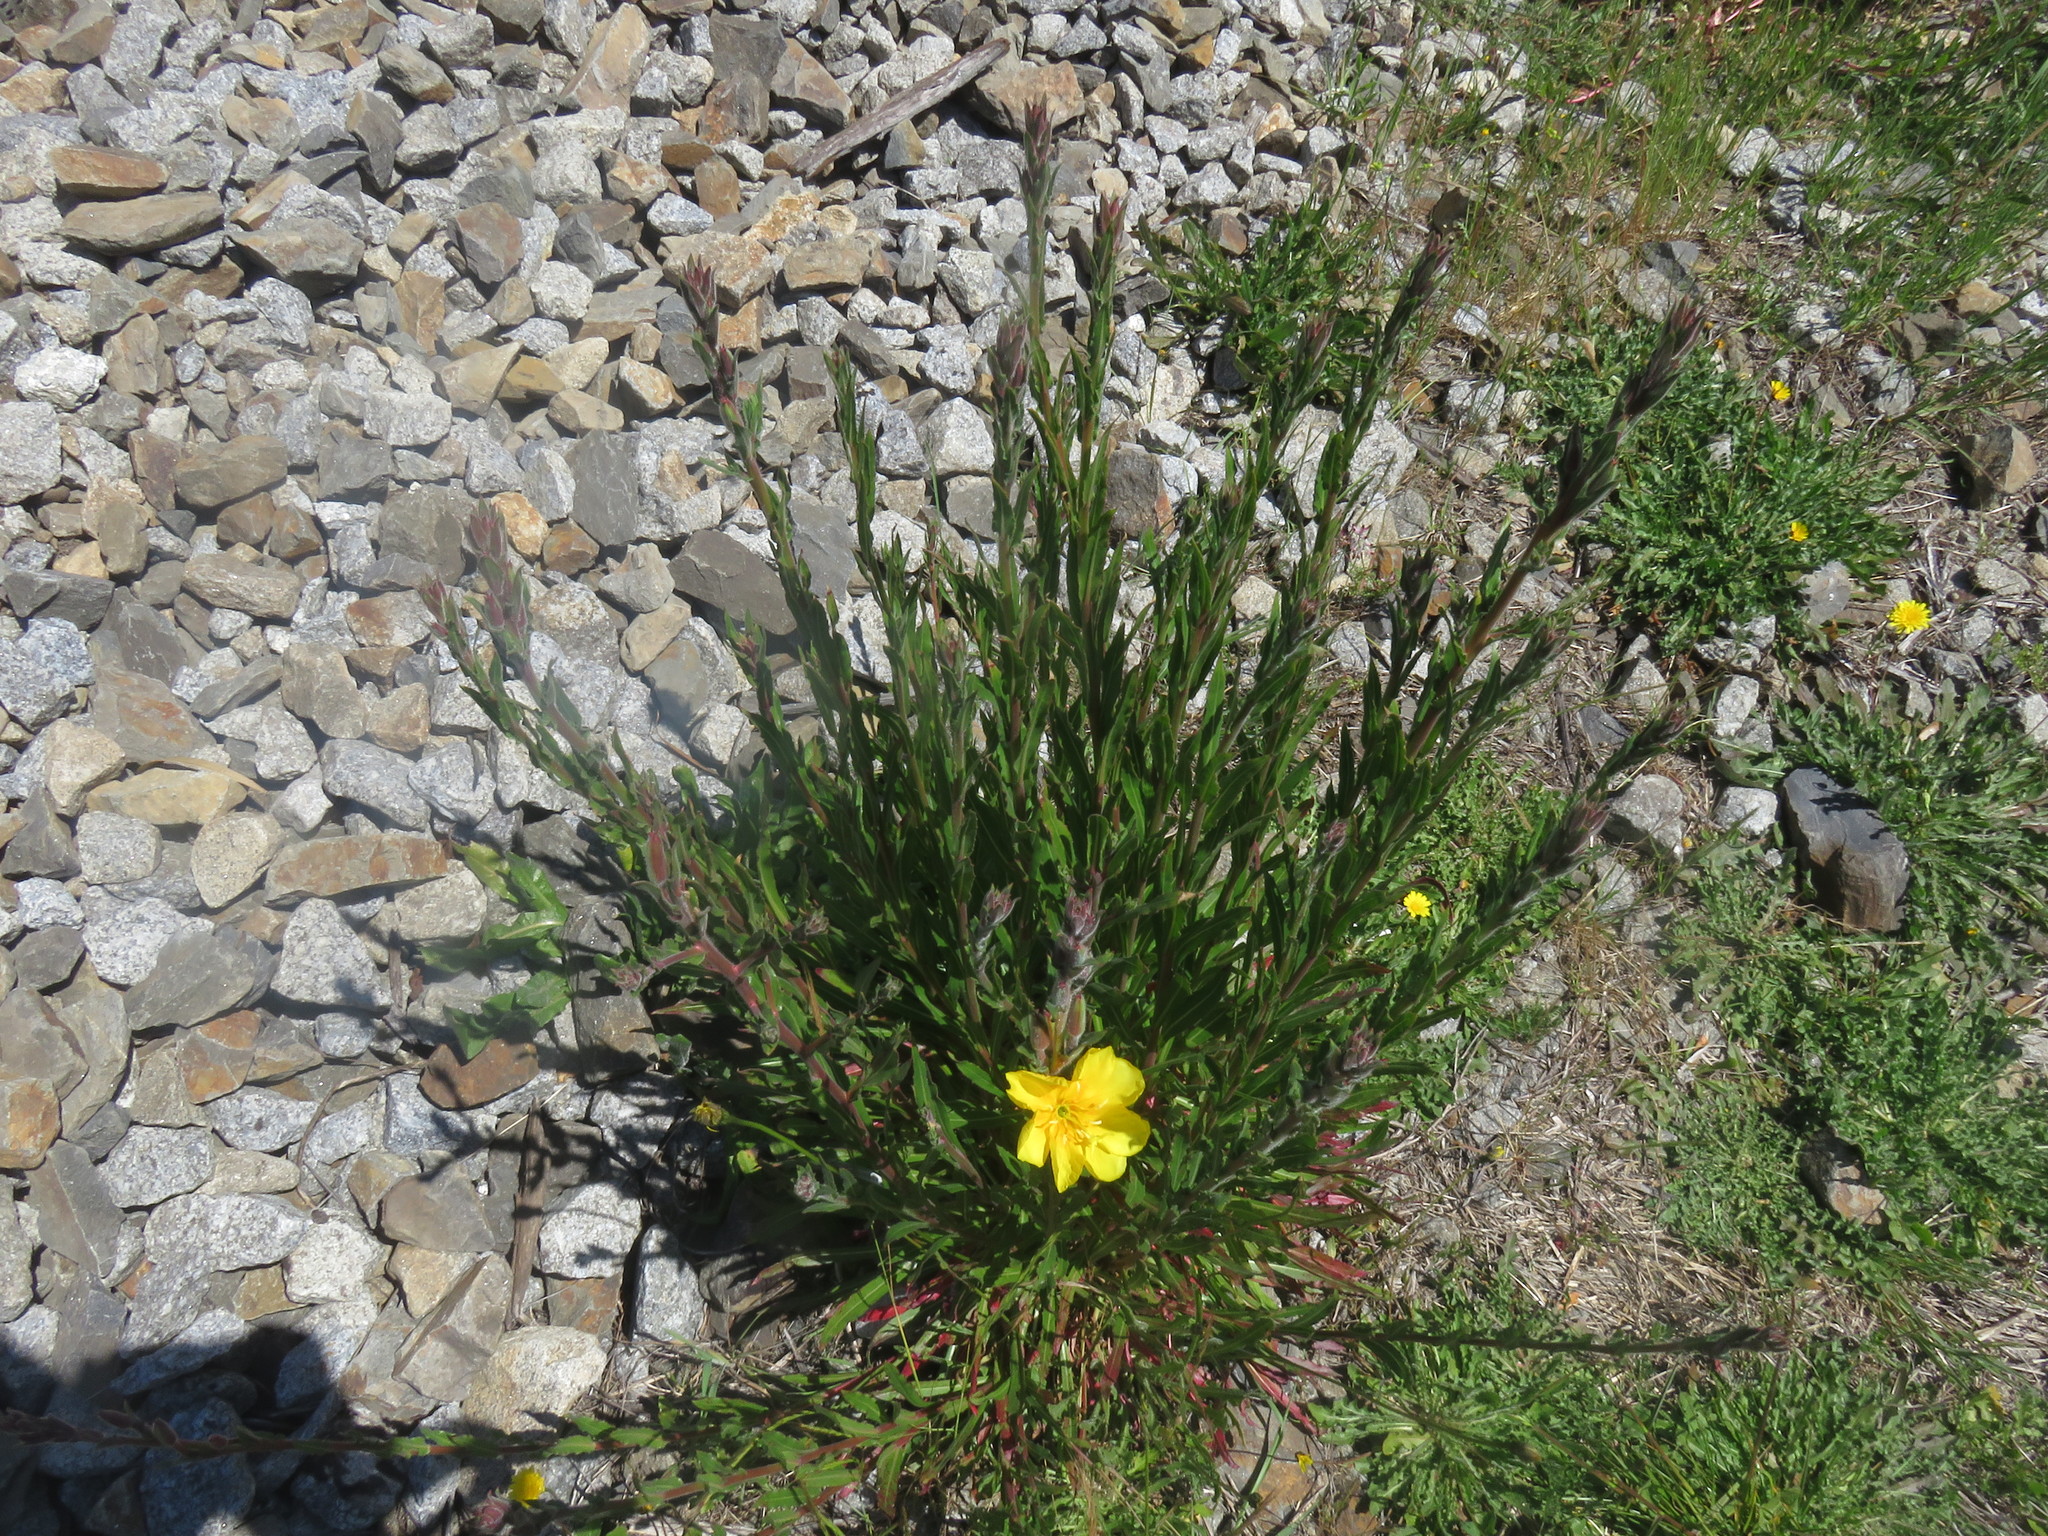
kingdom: Plantae
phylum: Tracheophyta
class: Magnoliopsida
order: Myrtales
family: Onagraceae
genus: Oenothera
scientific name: Oenothera stricta
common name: Fragrant evening-primrose
